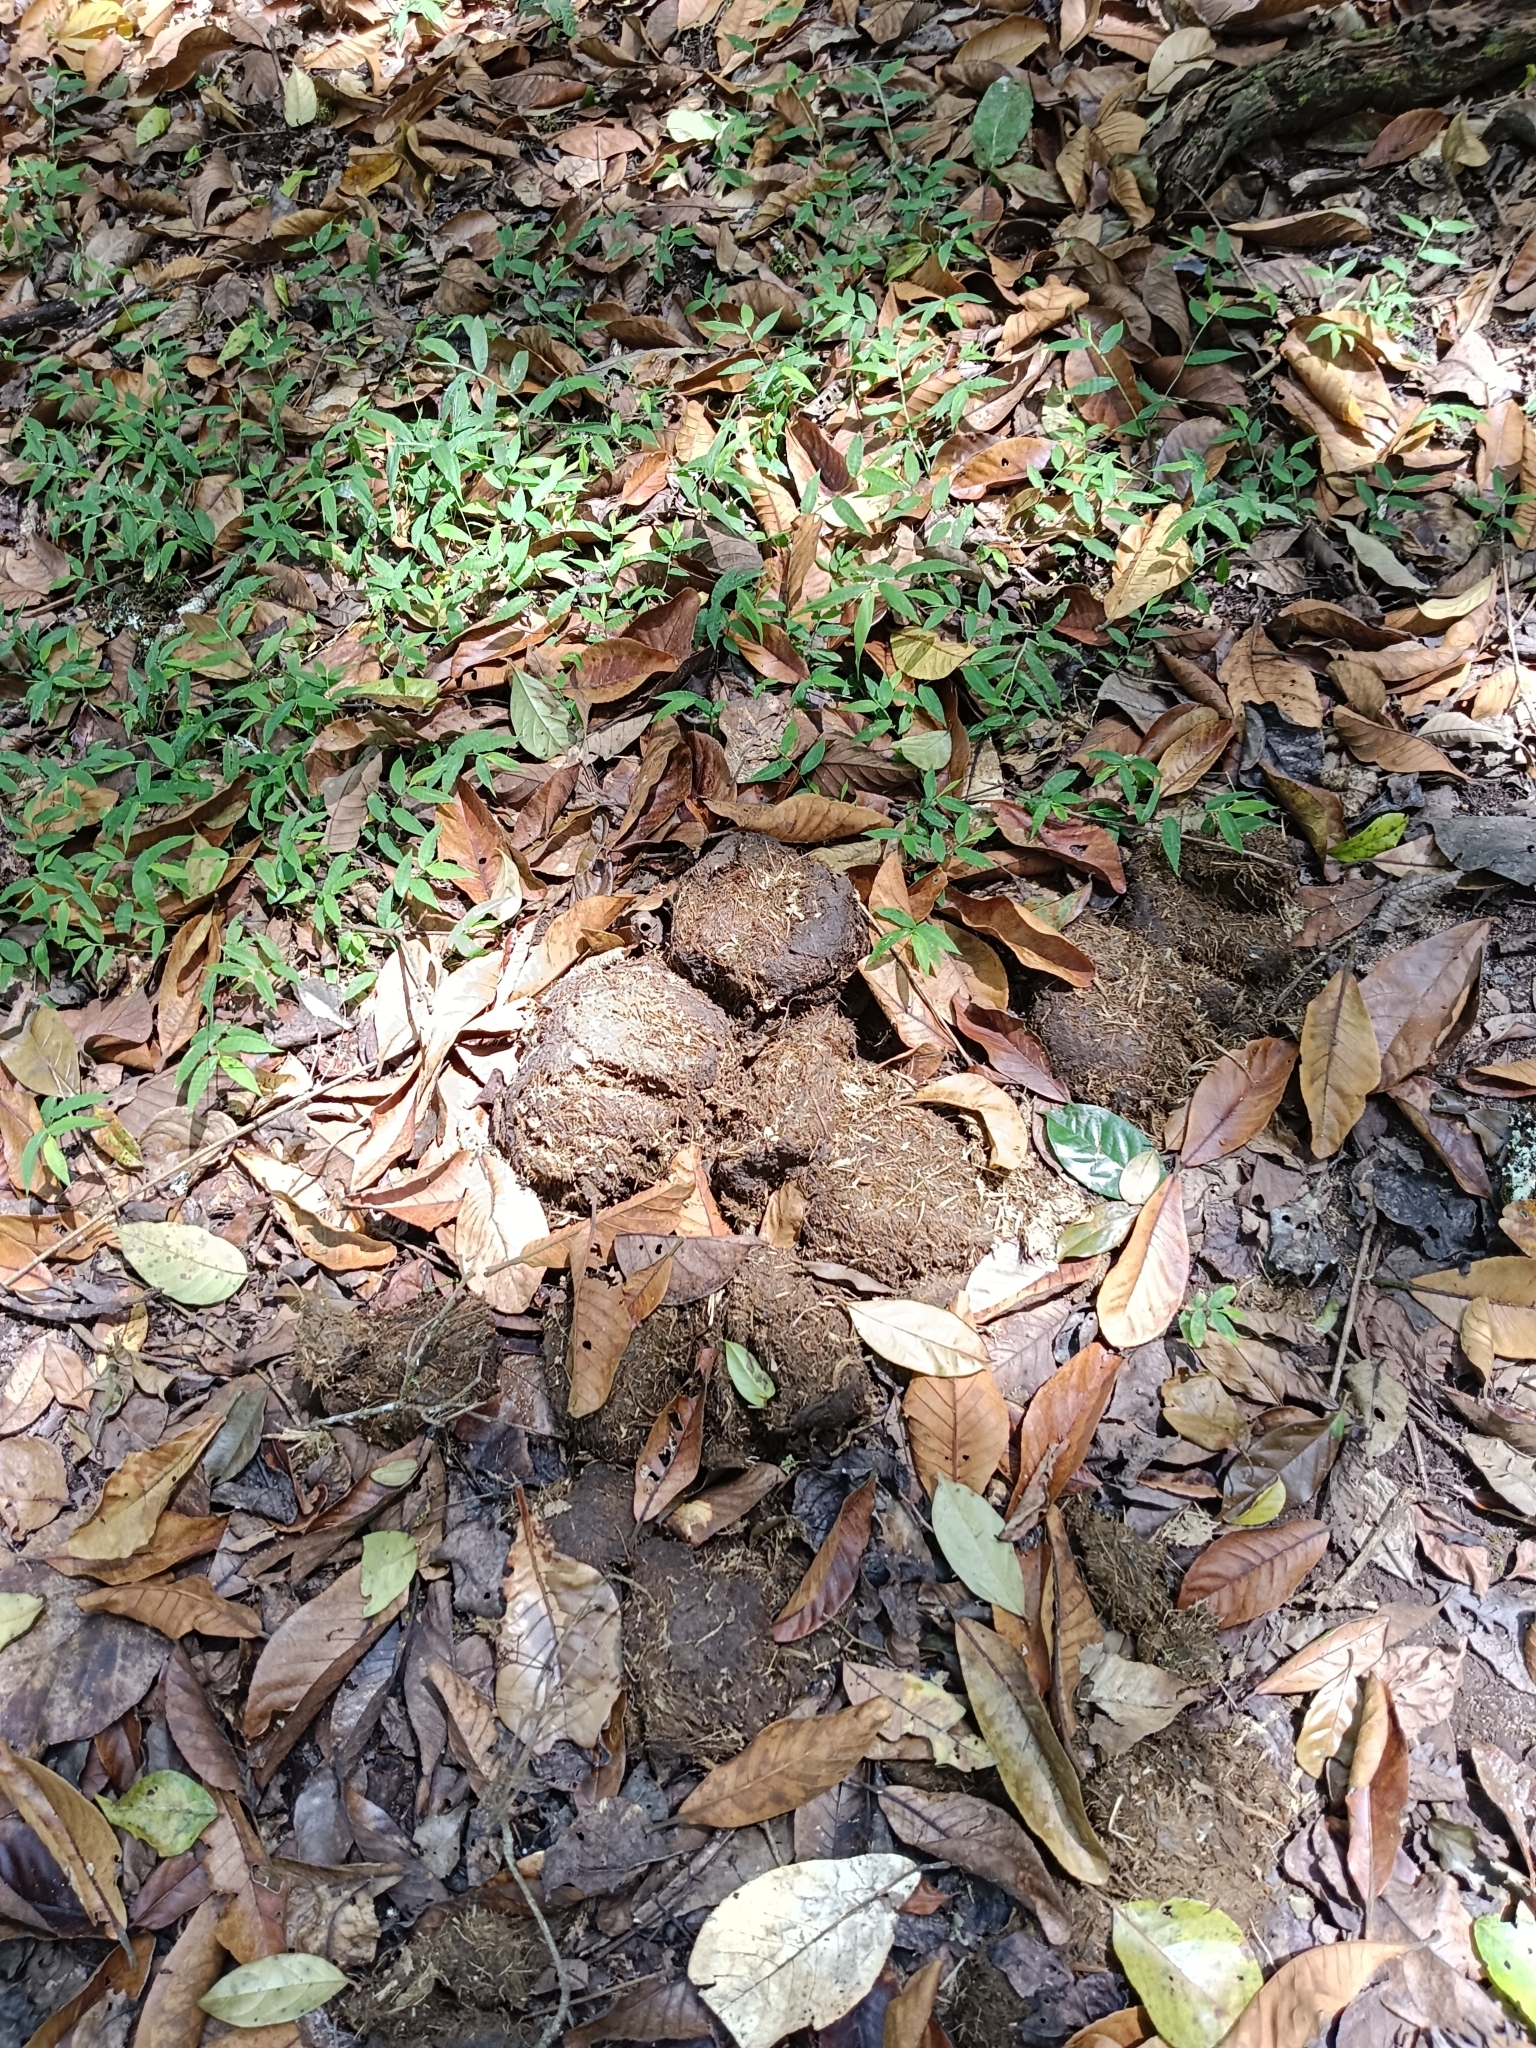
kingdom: Animalia
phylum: Chordata
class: Mammalia
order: Proboscidea
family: Elephantidae
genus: Elephas
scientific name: Elephas maximus
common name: Asian elephant
